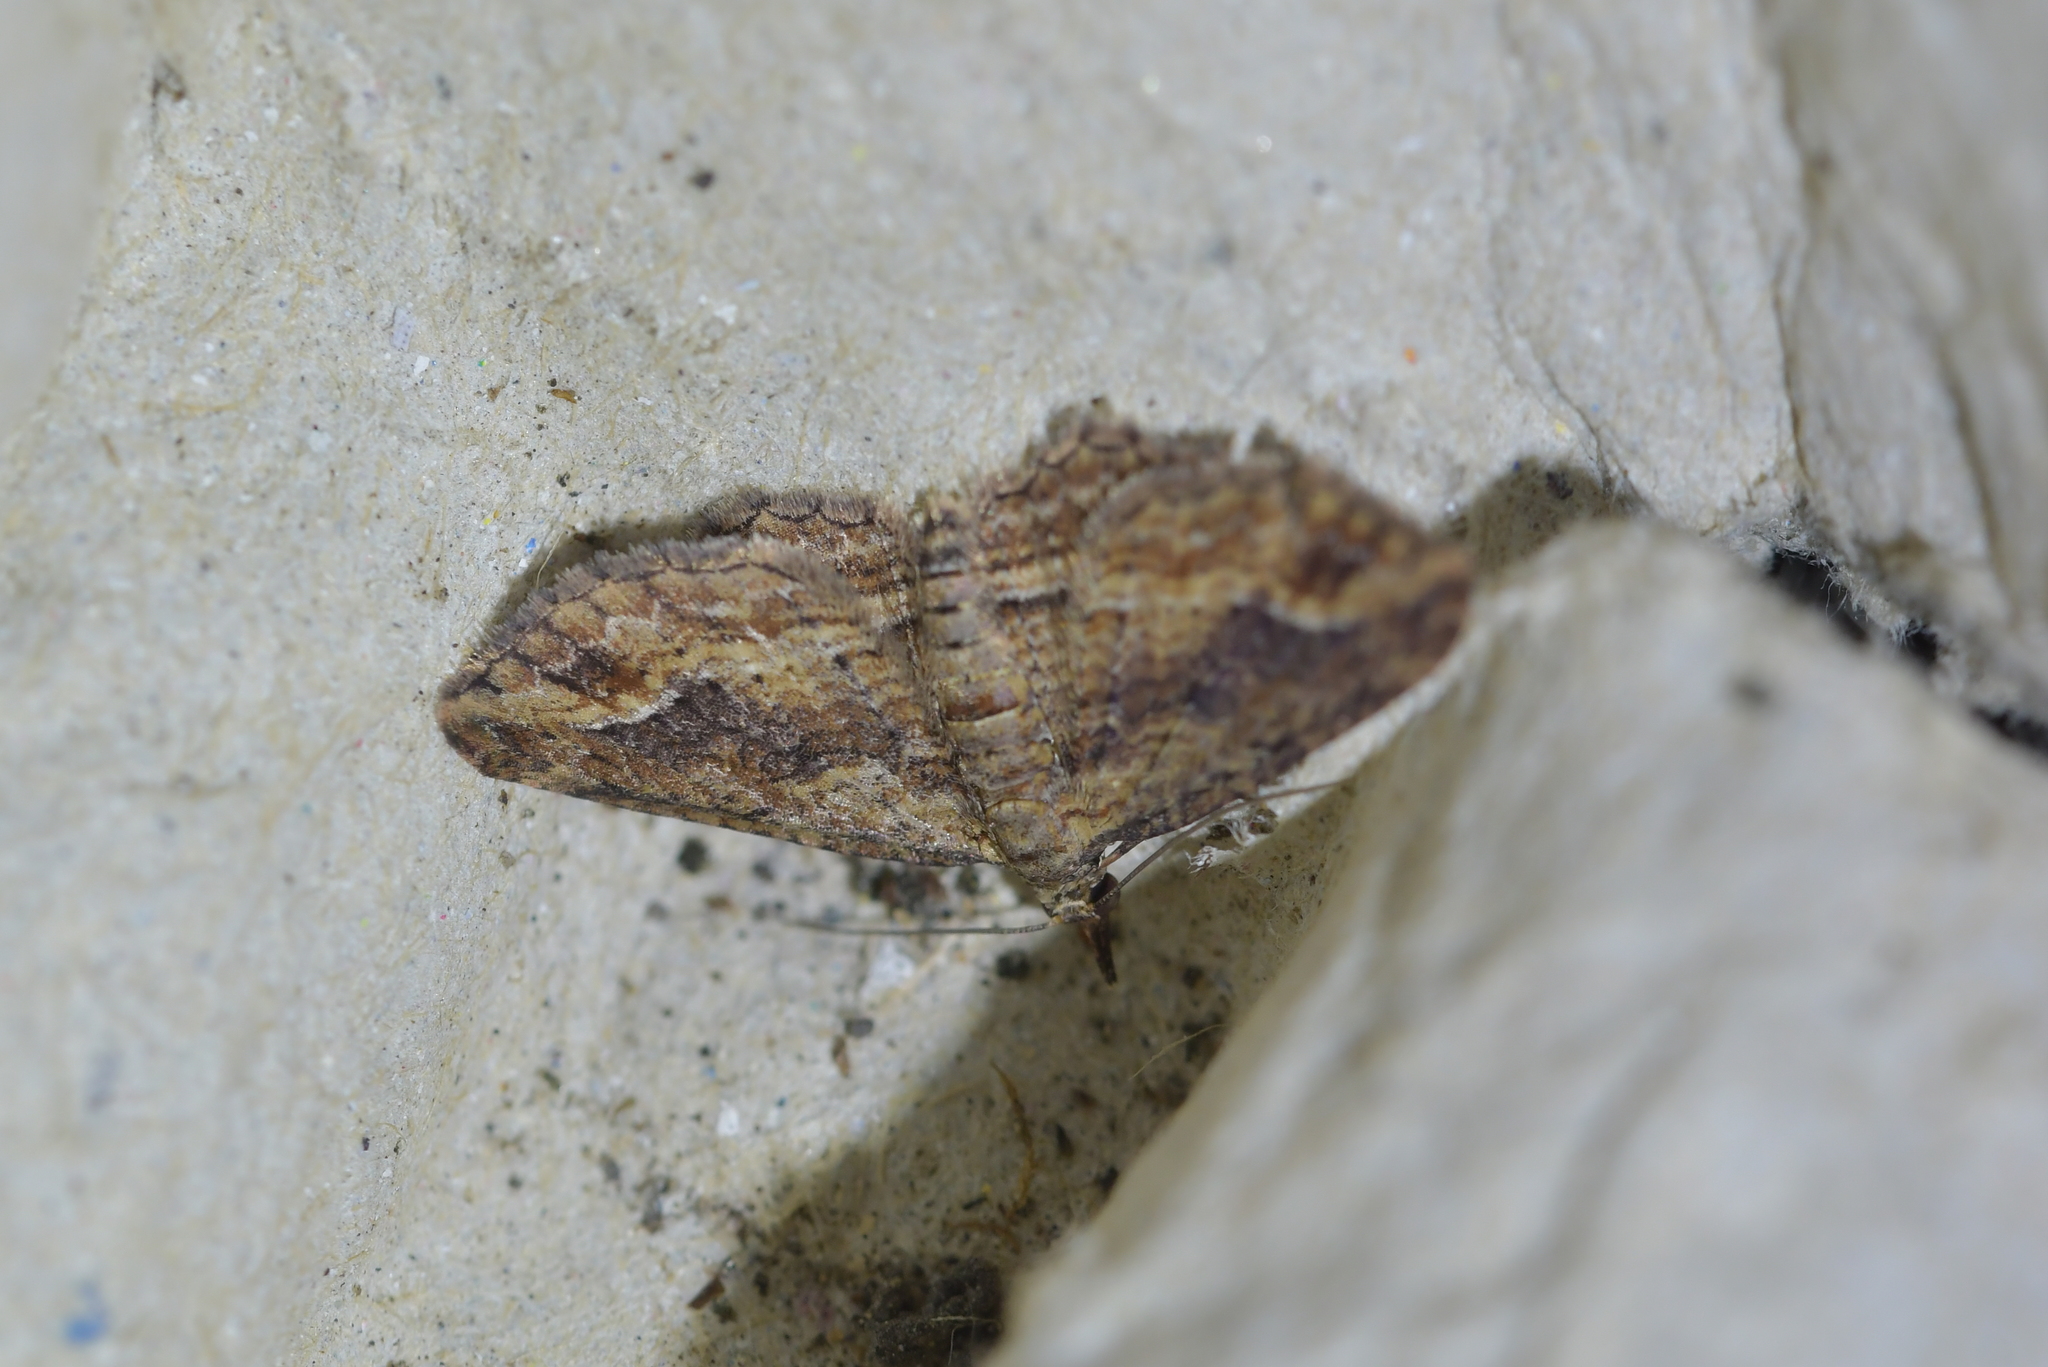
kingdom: Animalia
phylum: Arthropoda
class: Insecta
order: Lepidoptera
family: Geometridae
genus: Chloroclystis
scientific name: Chloroclystis filata
